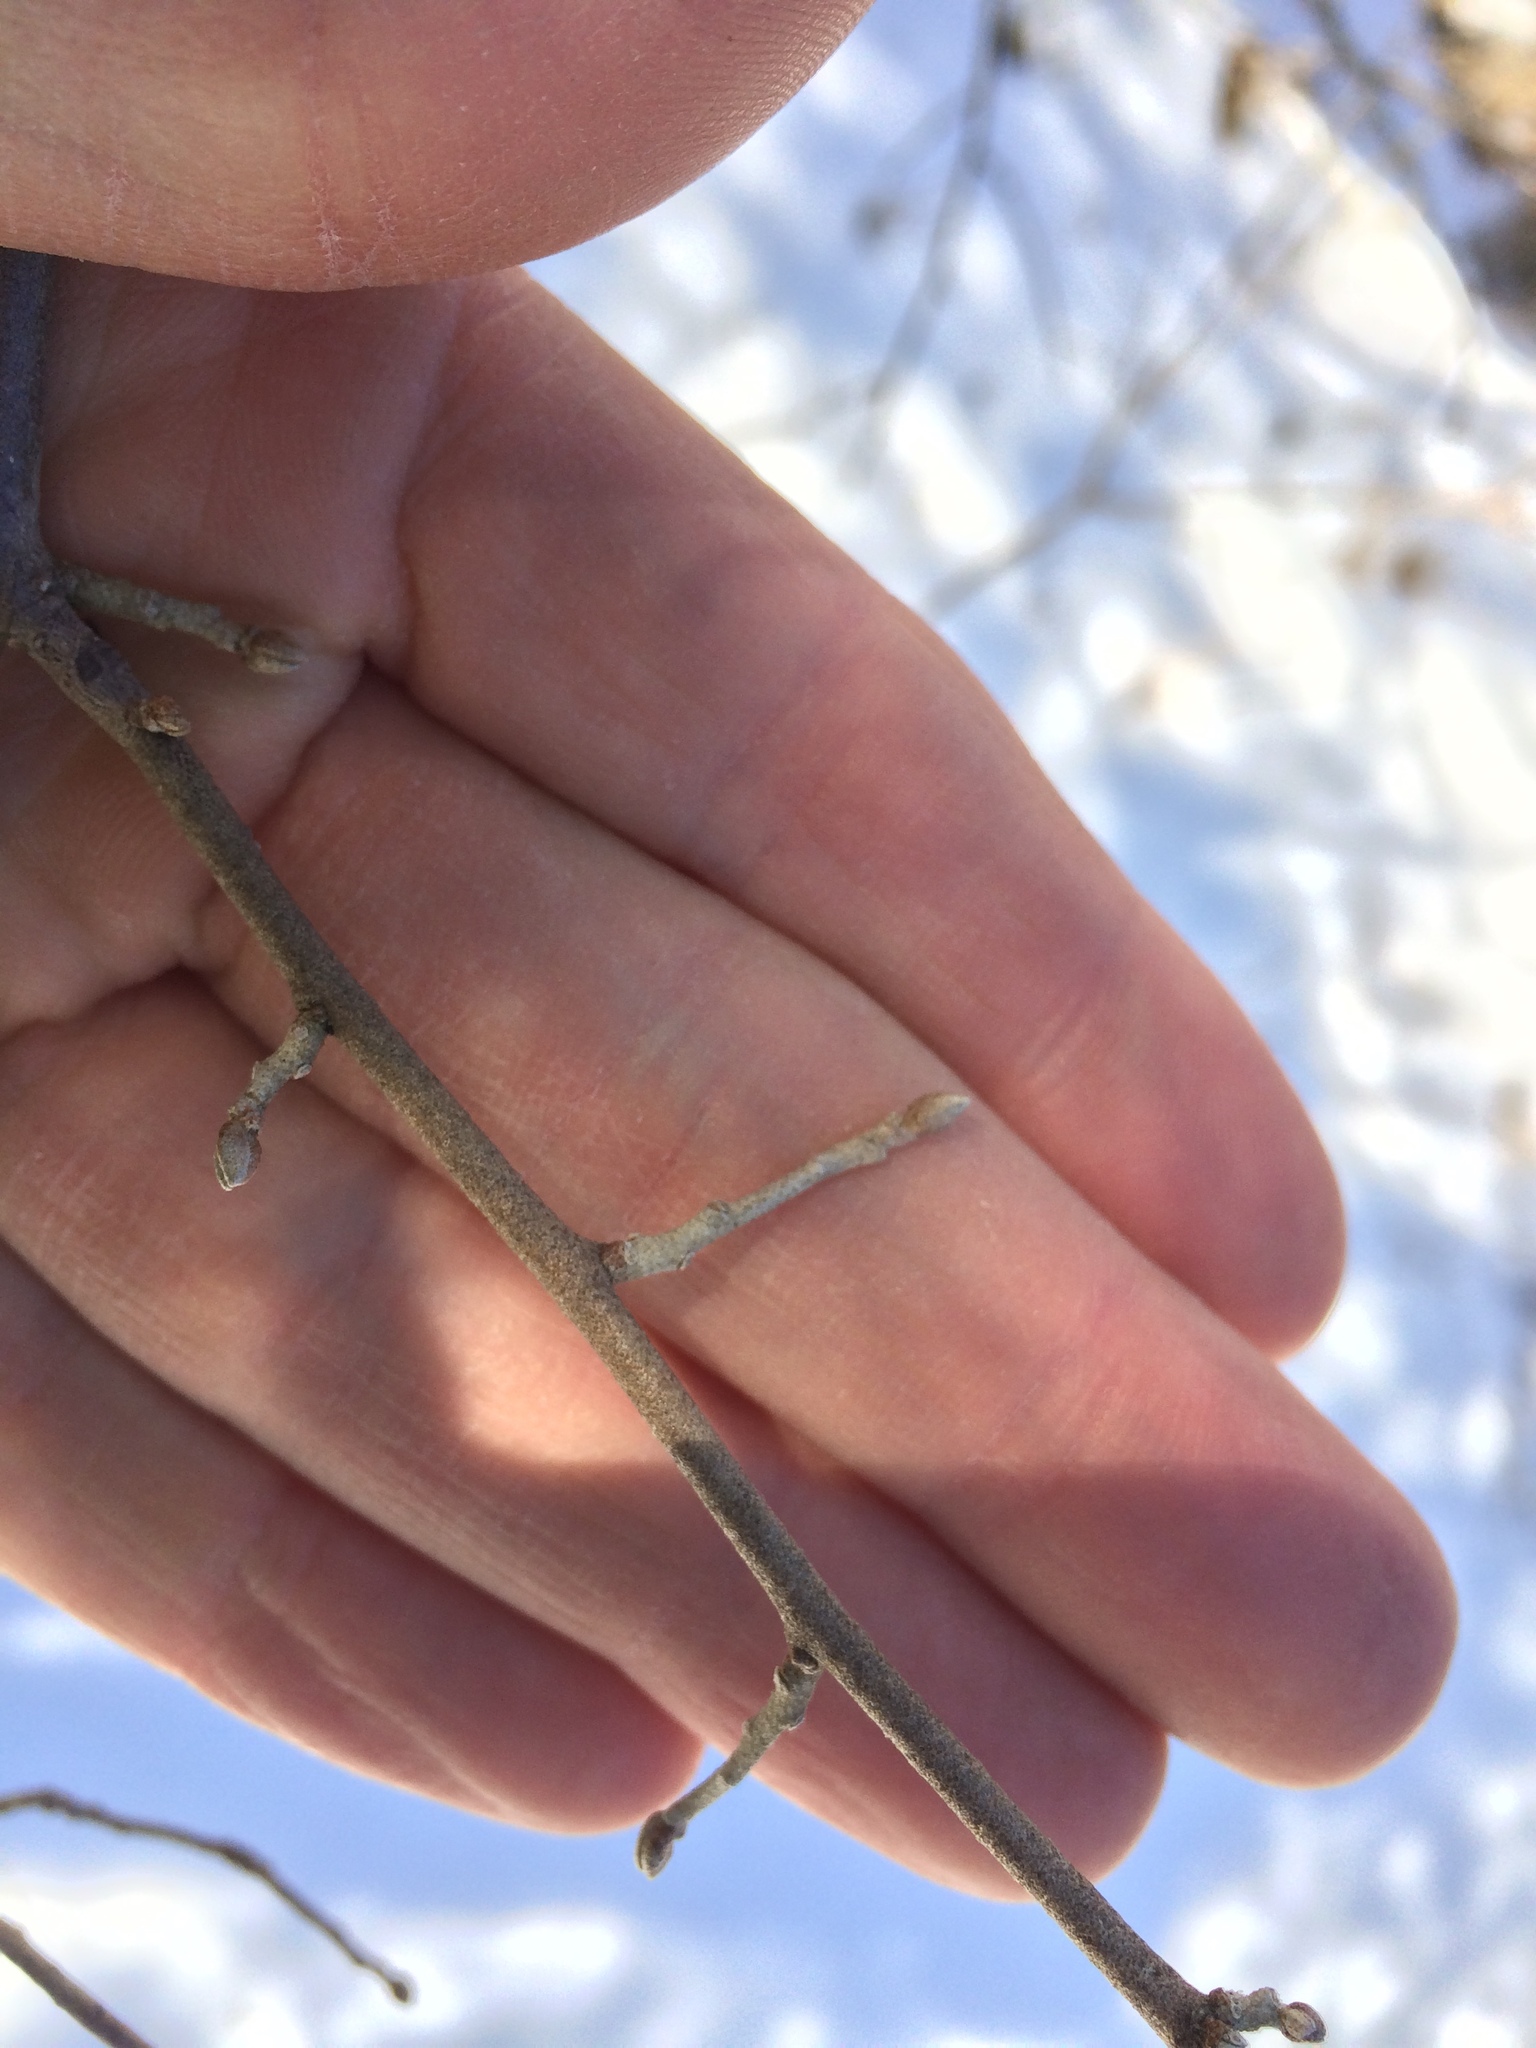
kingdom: Plantae
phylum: Tracheophyta
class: Magnoliopsida
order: Rosales
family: Elaeagnaceae
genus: Elaeagnus
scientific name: Elaeagnus umbellata
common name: Autumn olive
